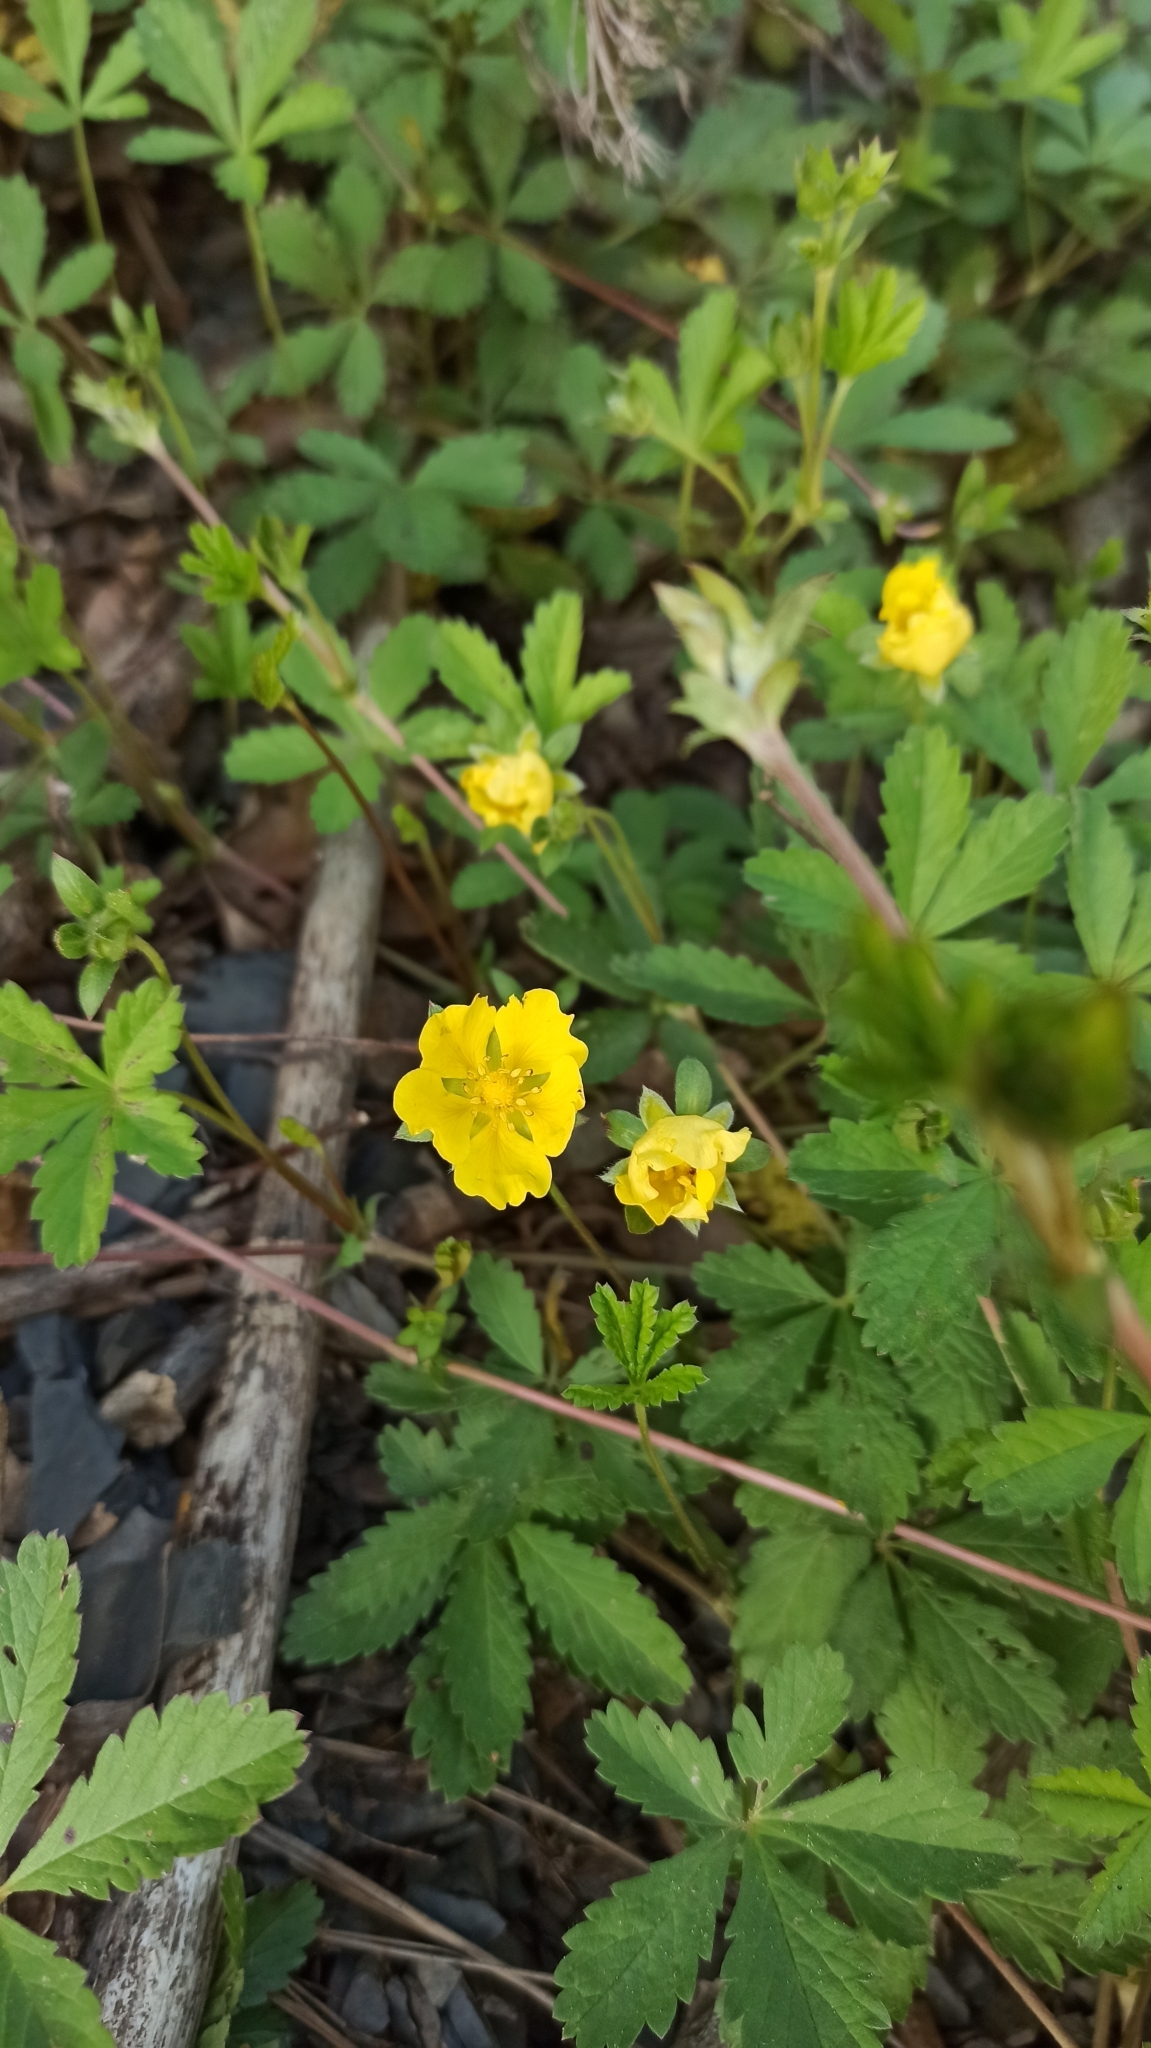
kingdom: Plantae
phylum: Tracheophyta
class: Magnoliopsida
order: Rosales
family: Rosaceae
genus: Potentilla
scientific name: Potentilla reptans
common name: Creeping cinquefoil
